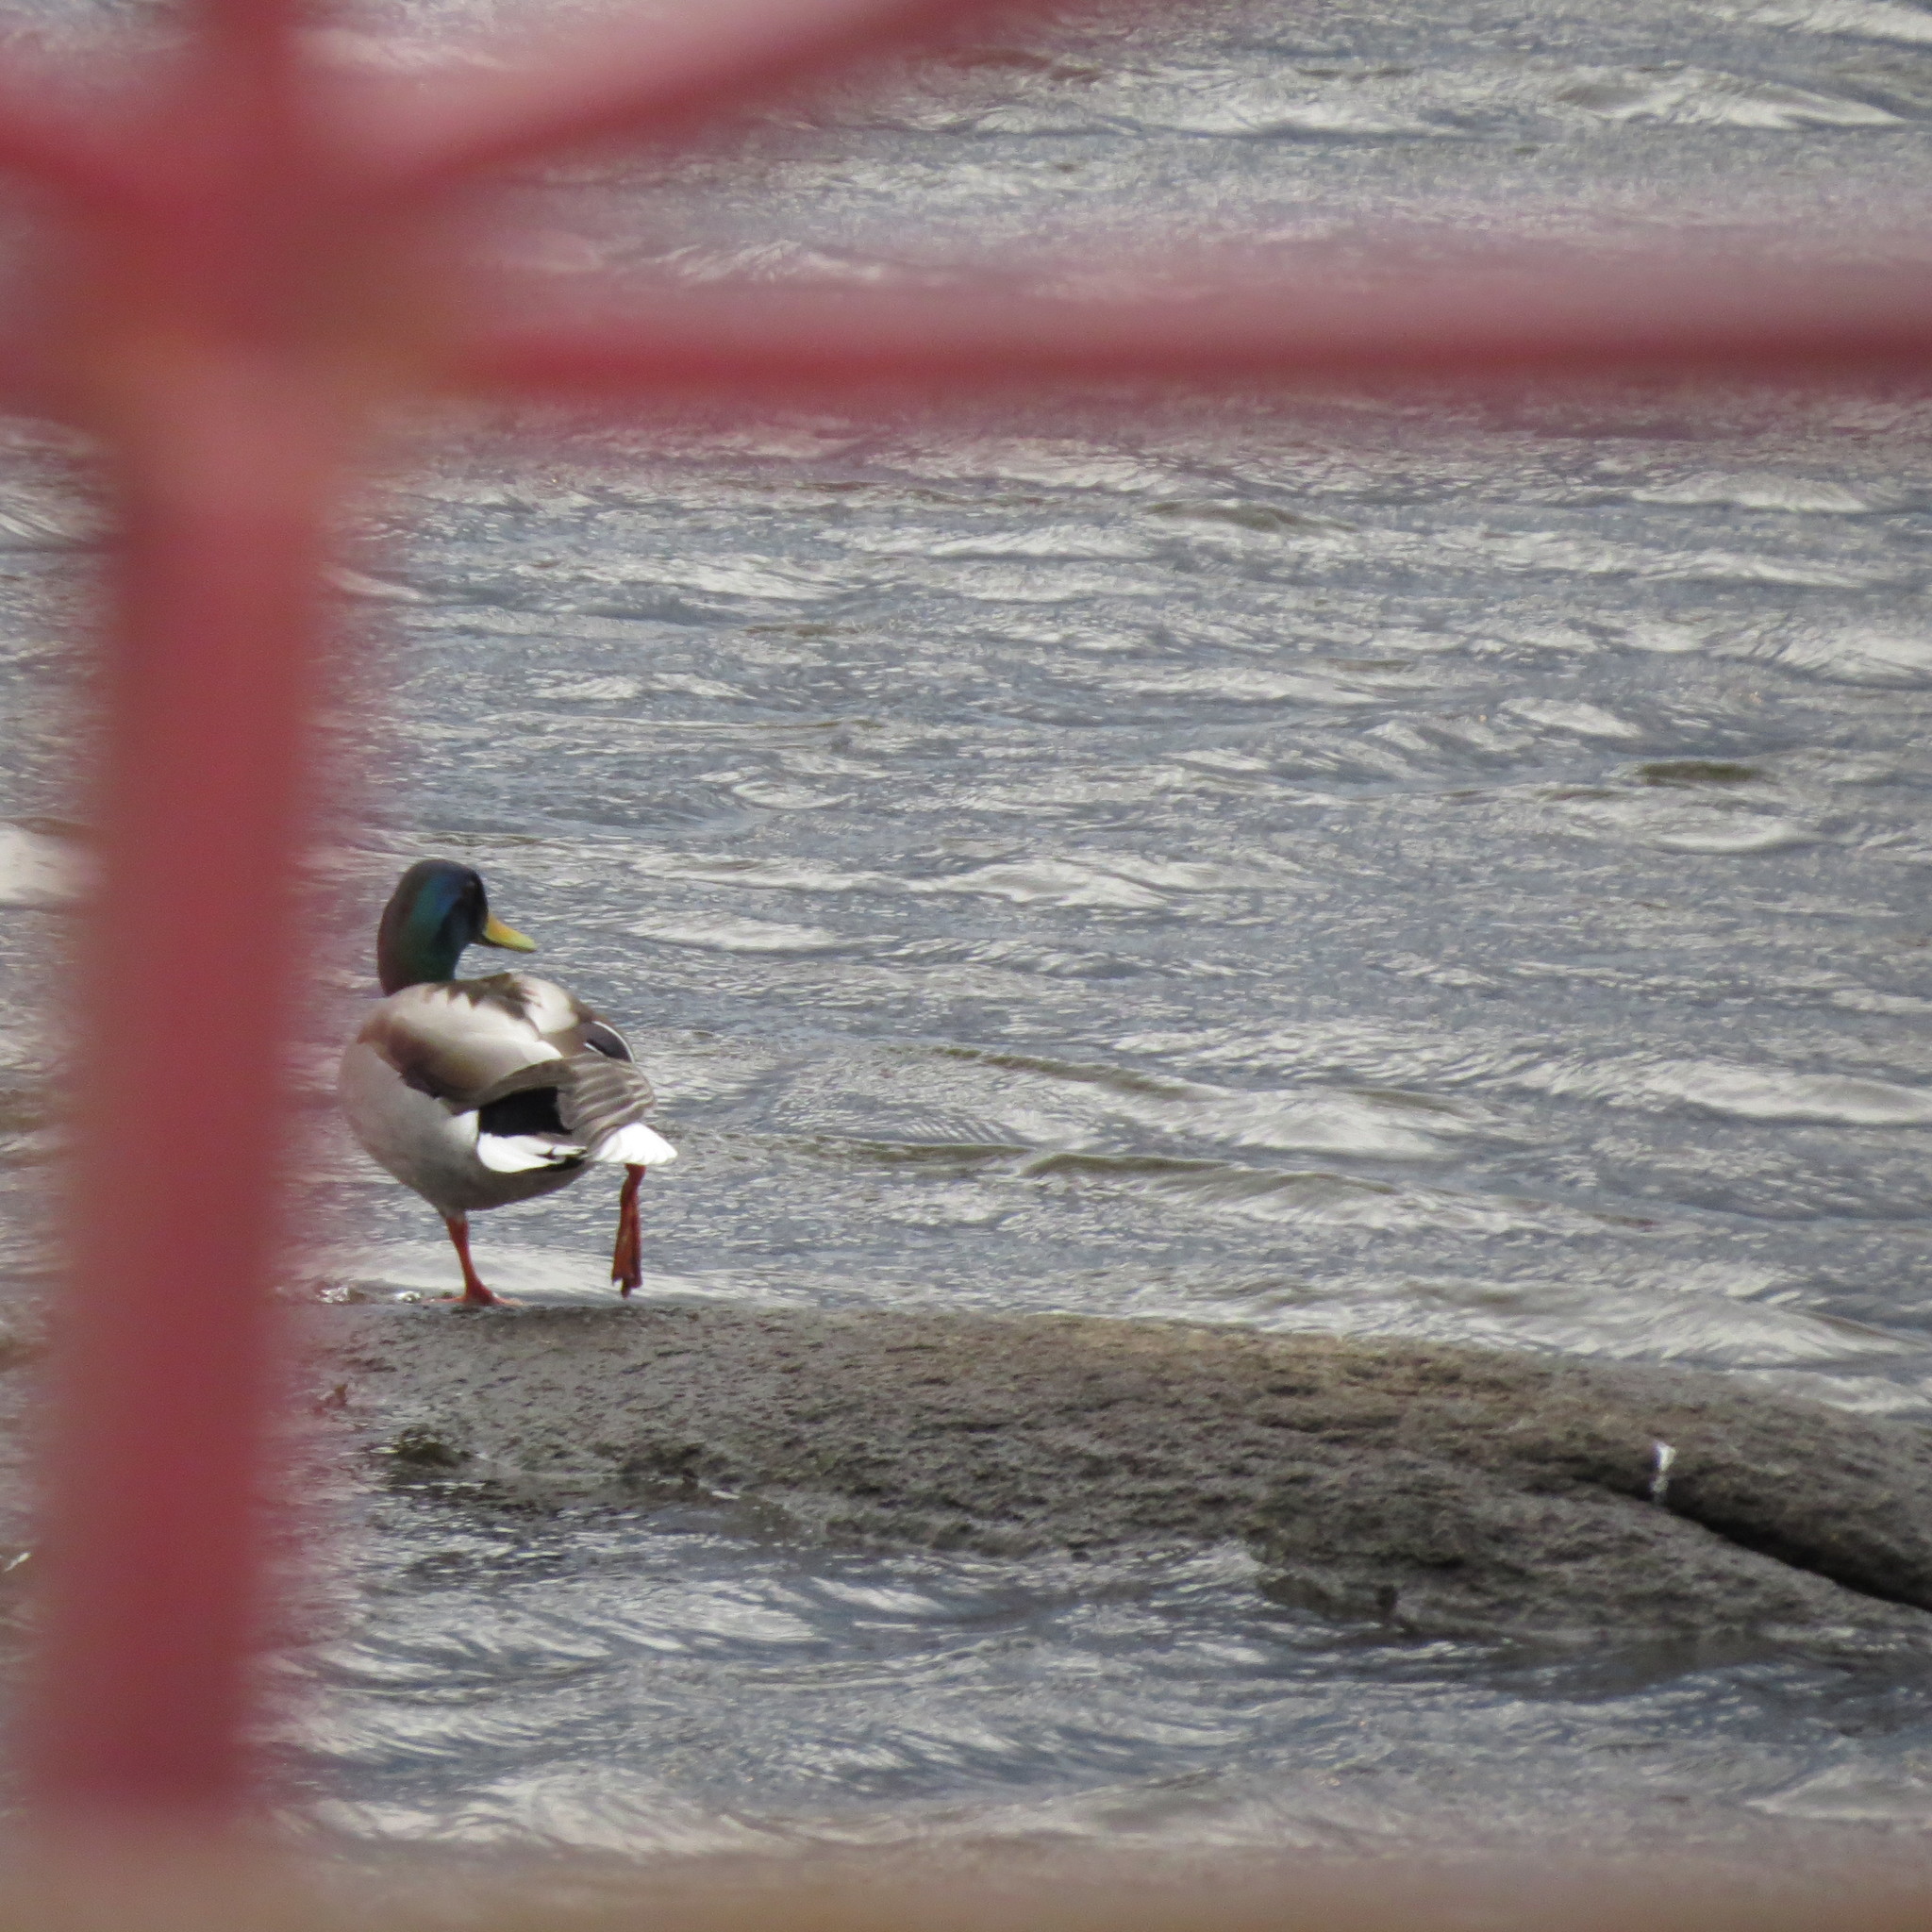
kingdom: Animalia
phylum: Chordata
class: Aves
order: Anseriformes
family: Anatidae
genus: Anas
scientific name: Anas platyrhynchos
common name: Mallard
